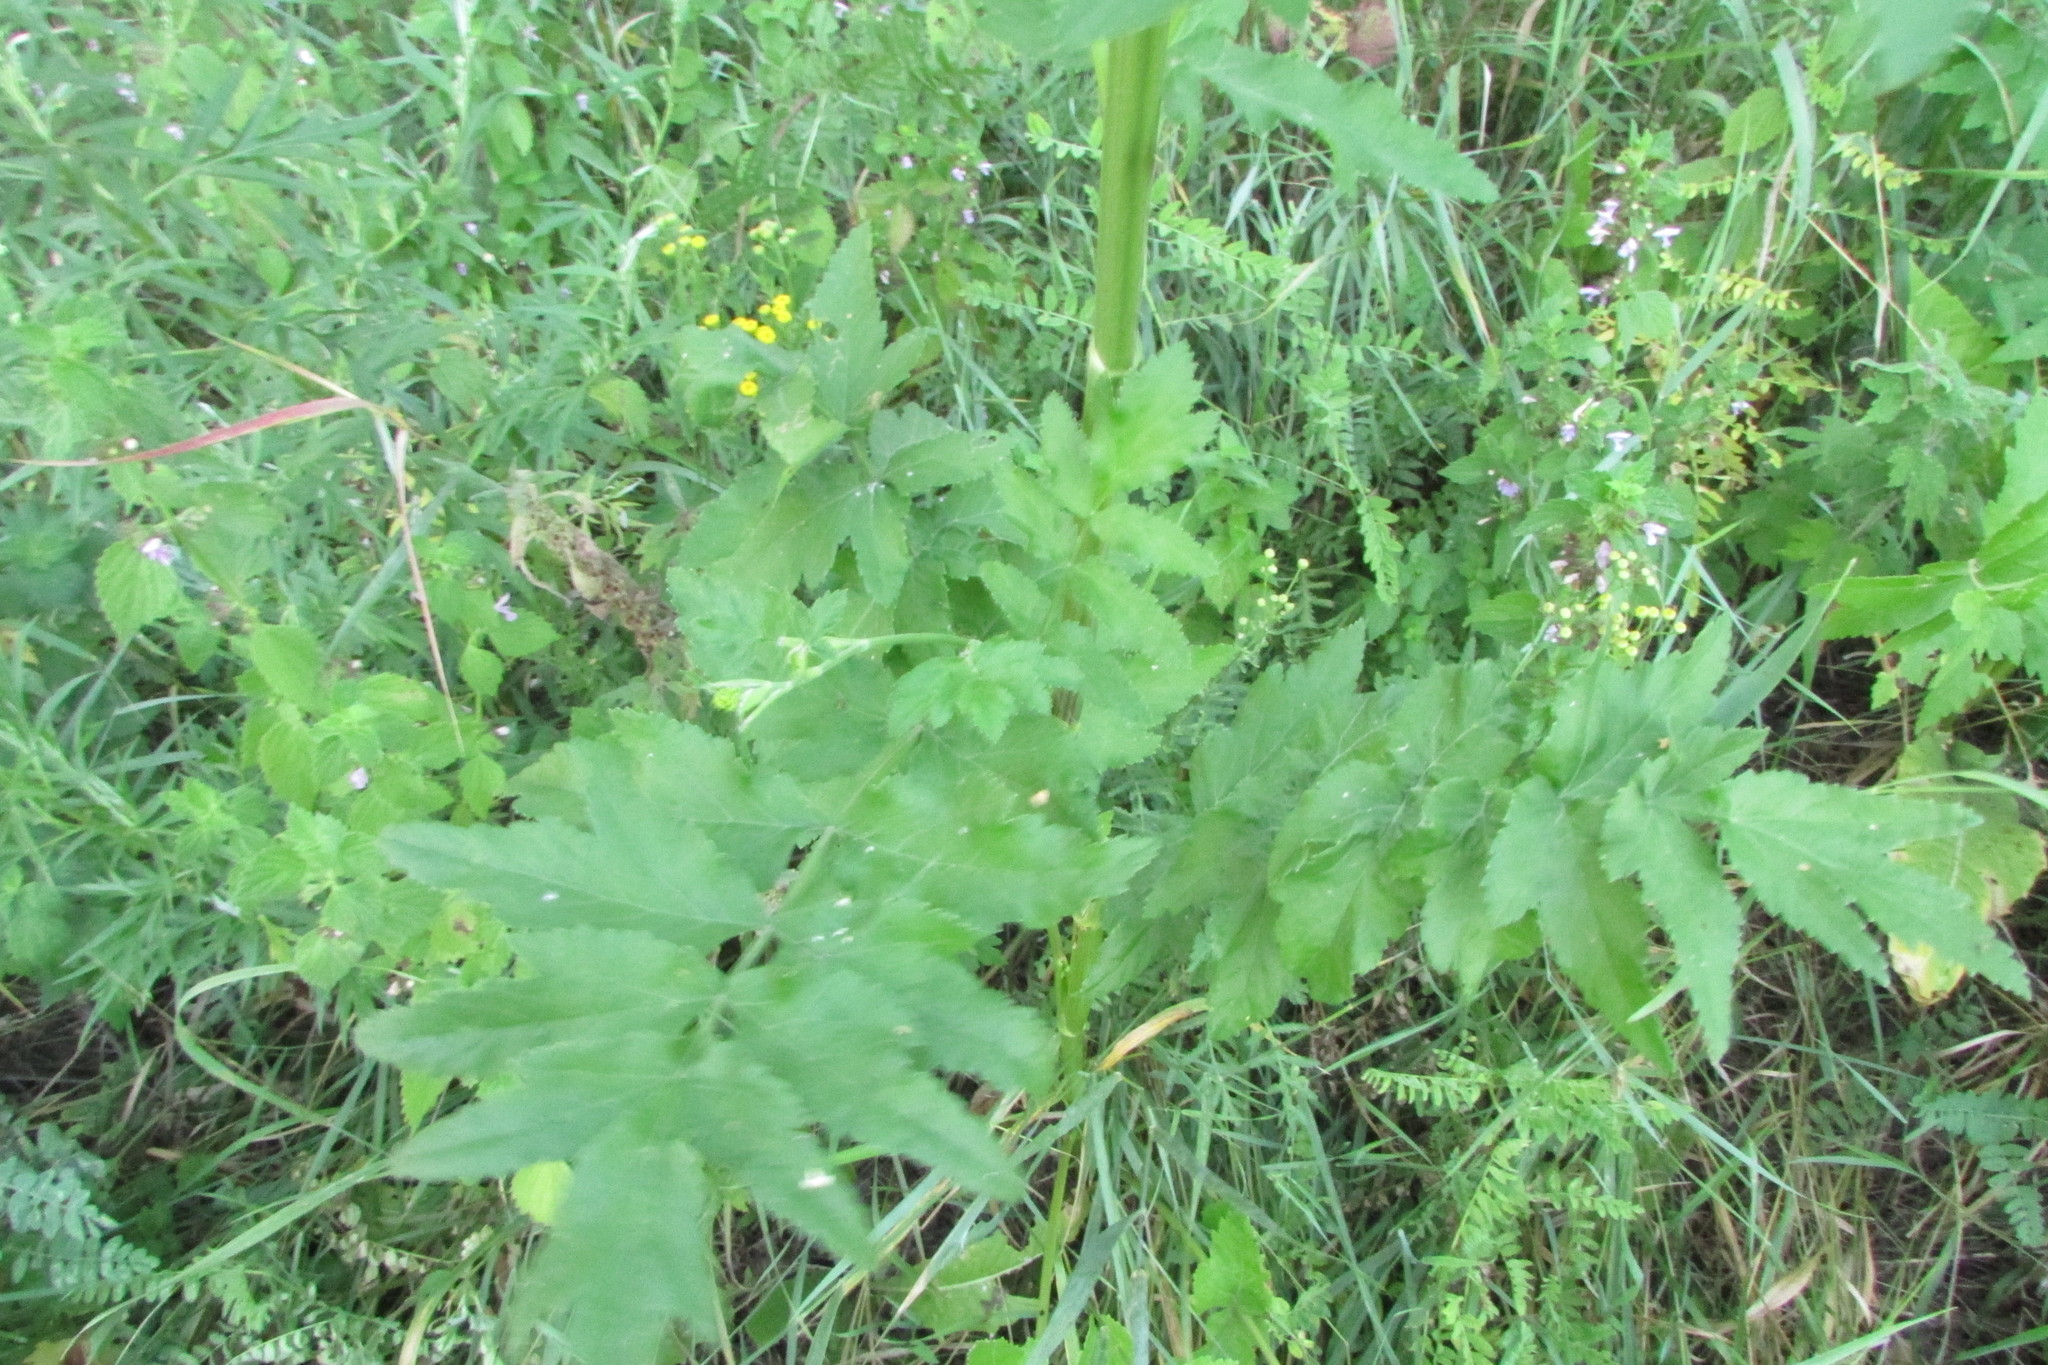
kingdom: Plantae
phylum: Tracheophyta
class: Magnoliopsida
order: Apiales
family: Apiaceae
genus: Pastinaca
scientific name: Pastinaca sativa
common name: Wild parsnip
